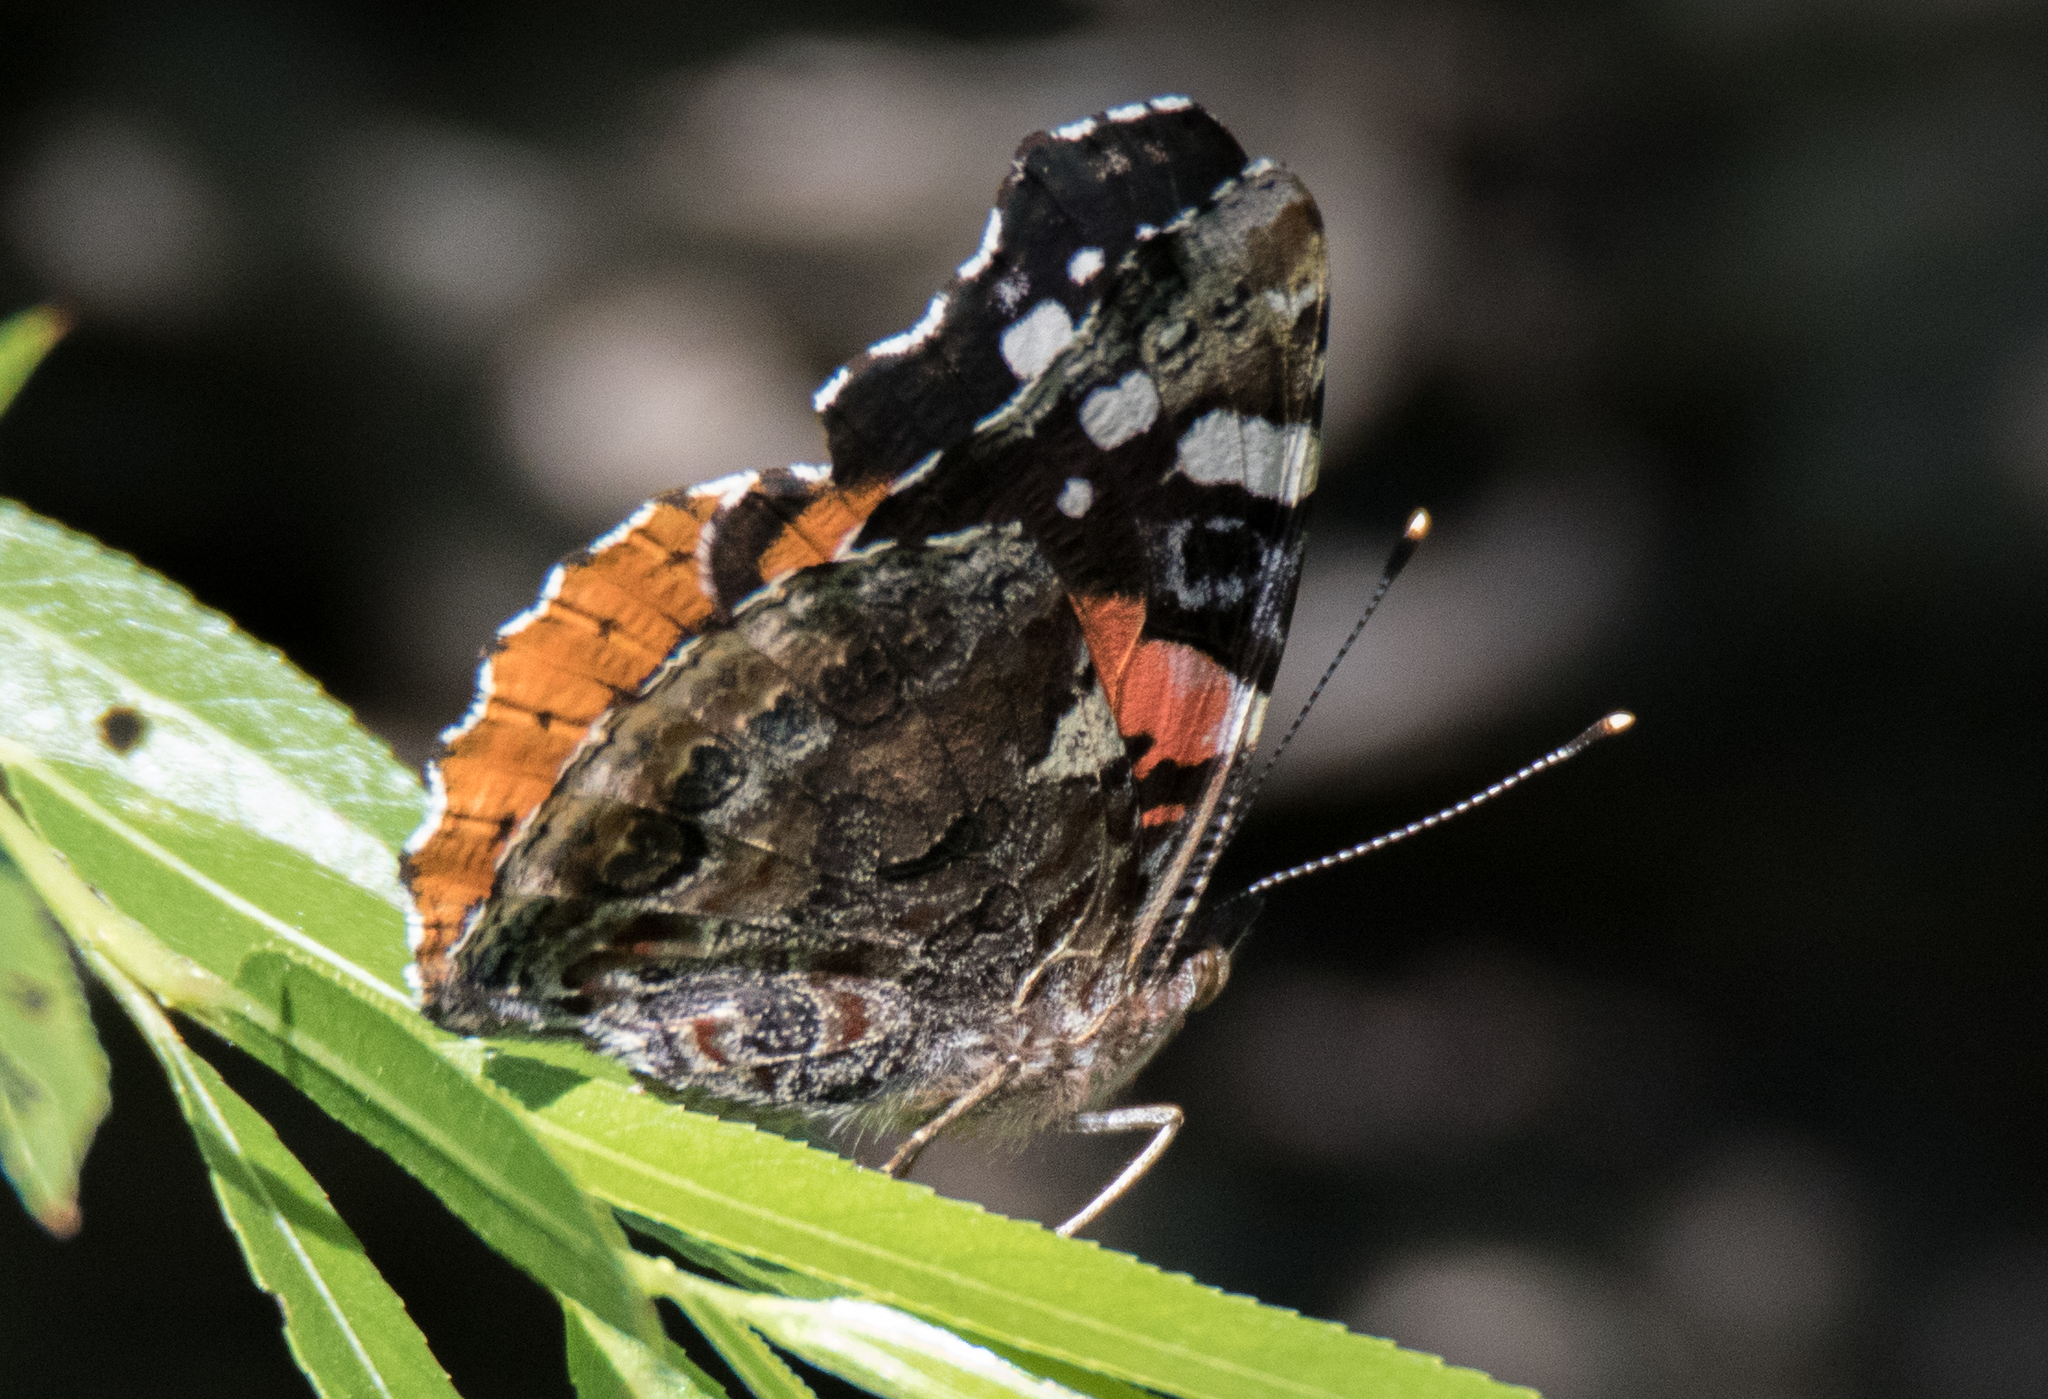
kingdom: Animalia
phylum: Arthropoda
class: Insecta
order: Lepidoptera
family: Nymphalidae
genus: Vanessa
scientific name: Vanessa atalanta
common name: Red admiral
